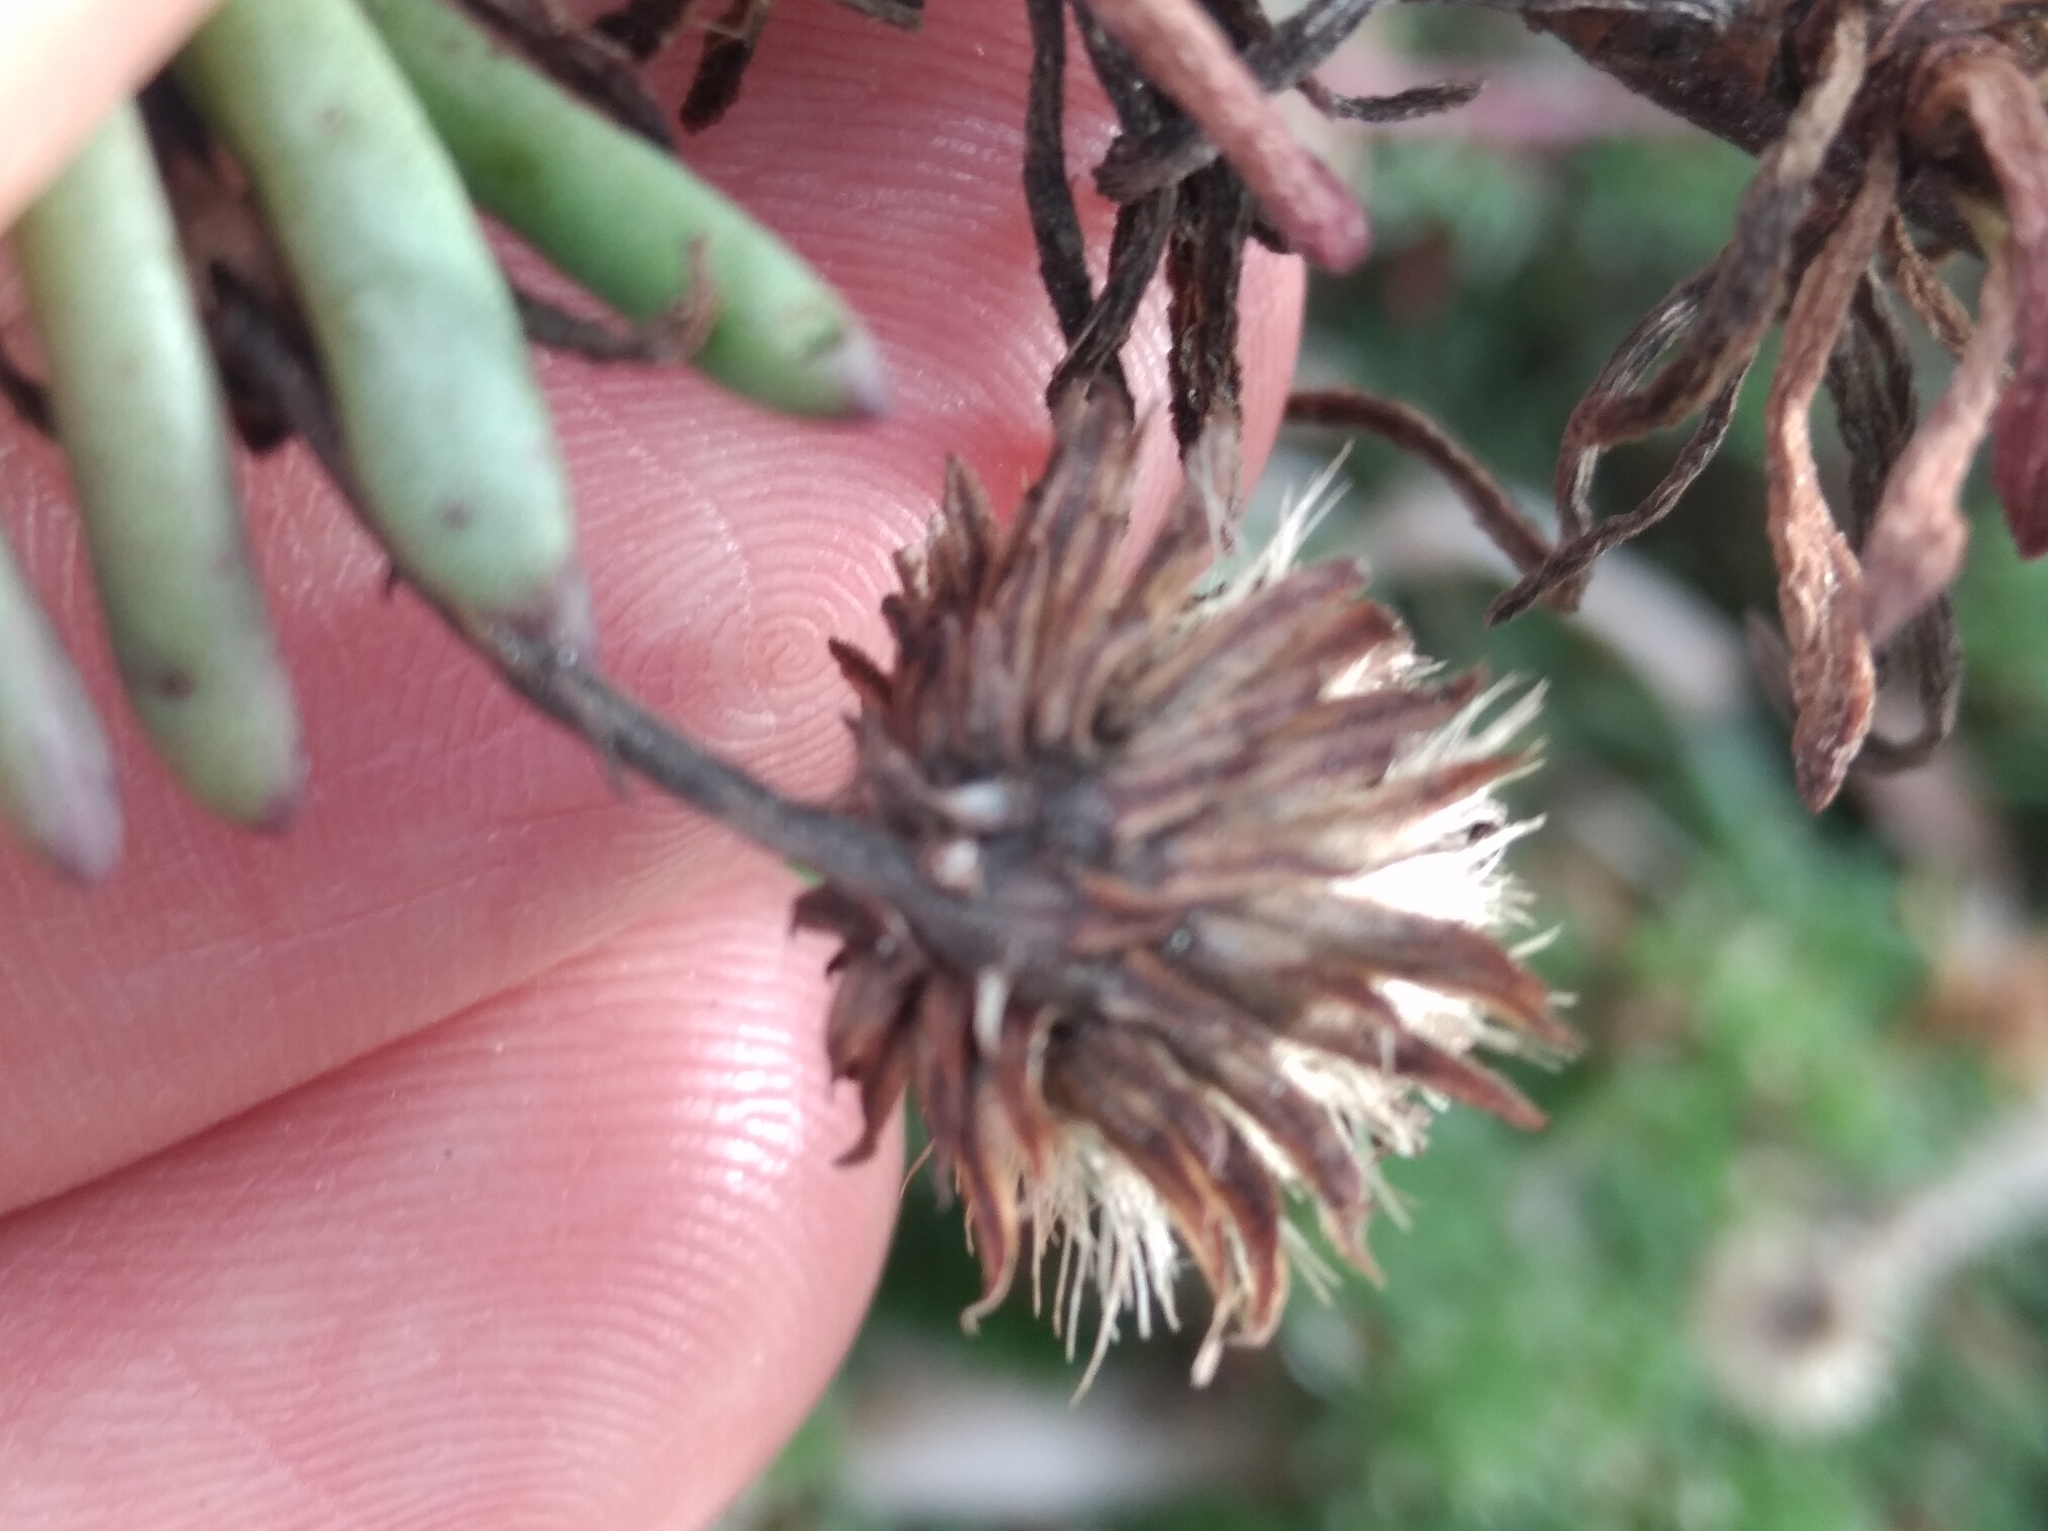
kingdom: Plantae
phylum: Tracheophyta
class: Magnoliopsida
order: Asterales
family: Asteraceae
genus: Limbarda
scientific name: Limbarda crithmoides
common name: Golden samphire
